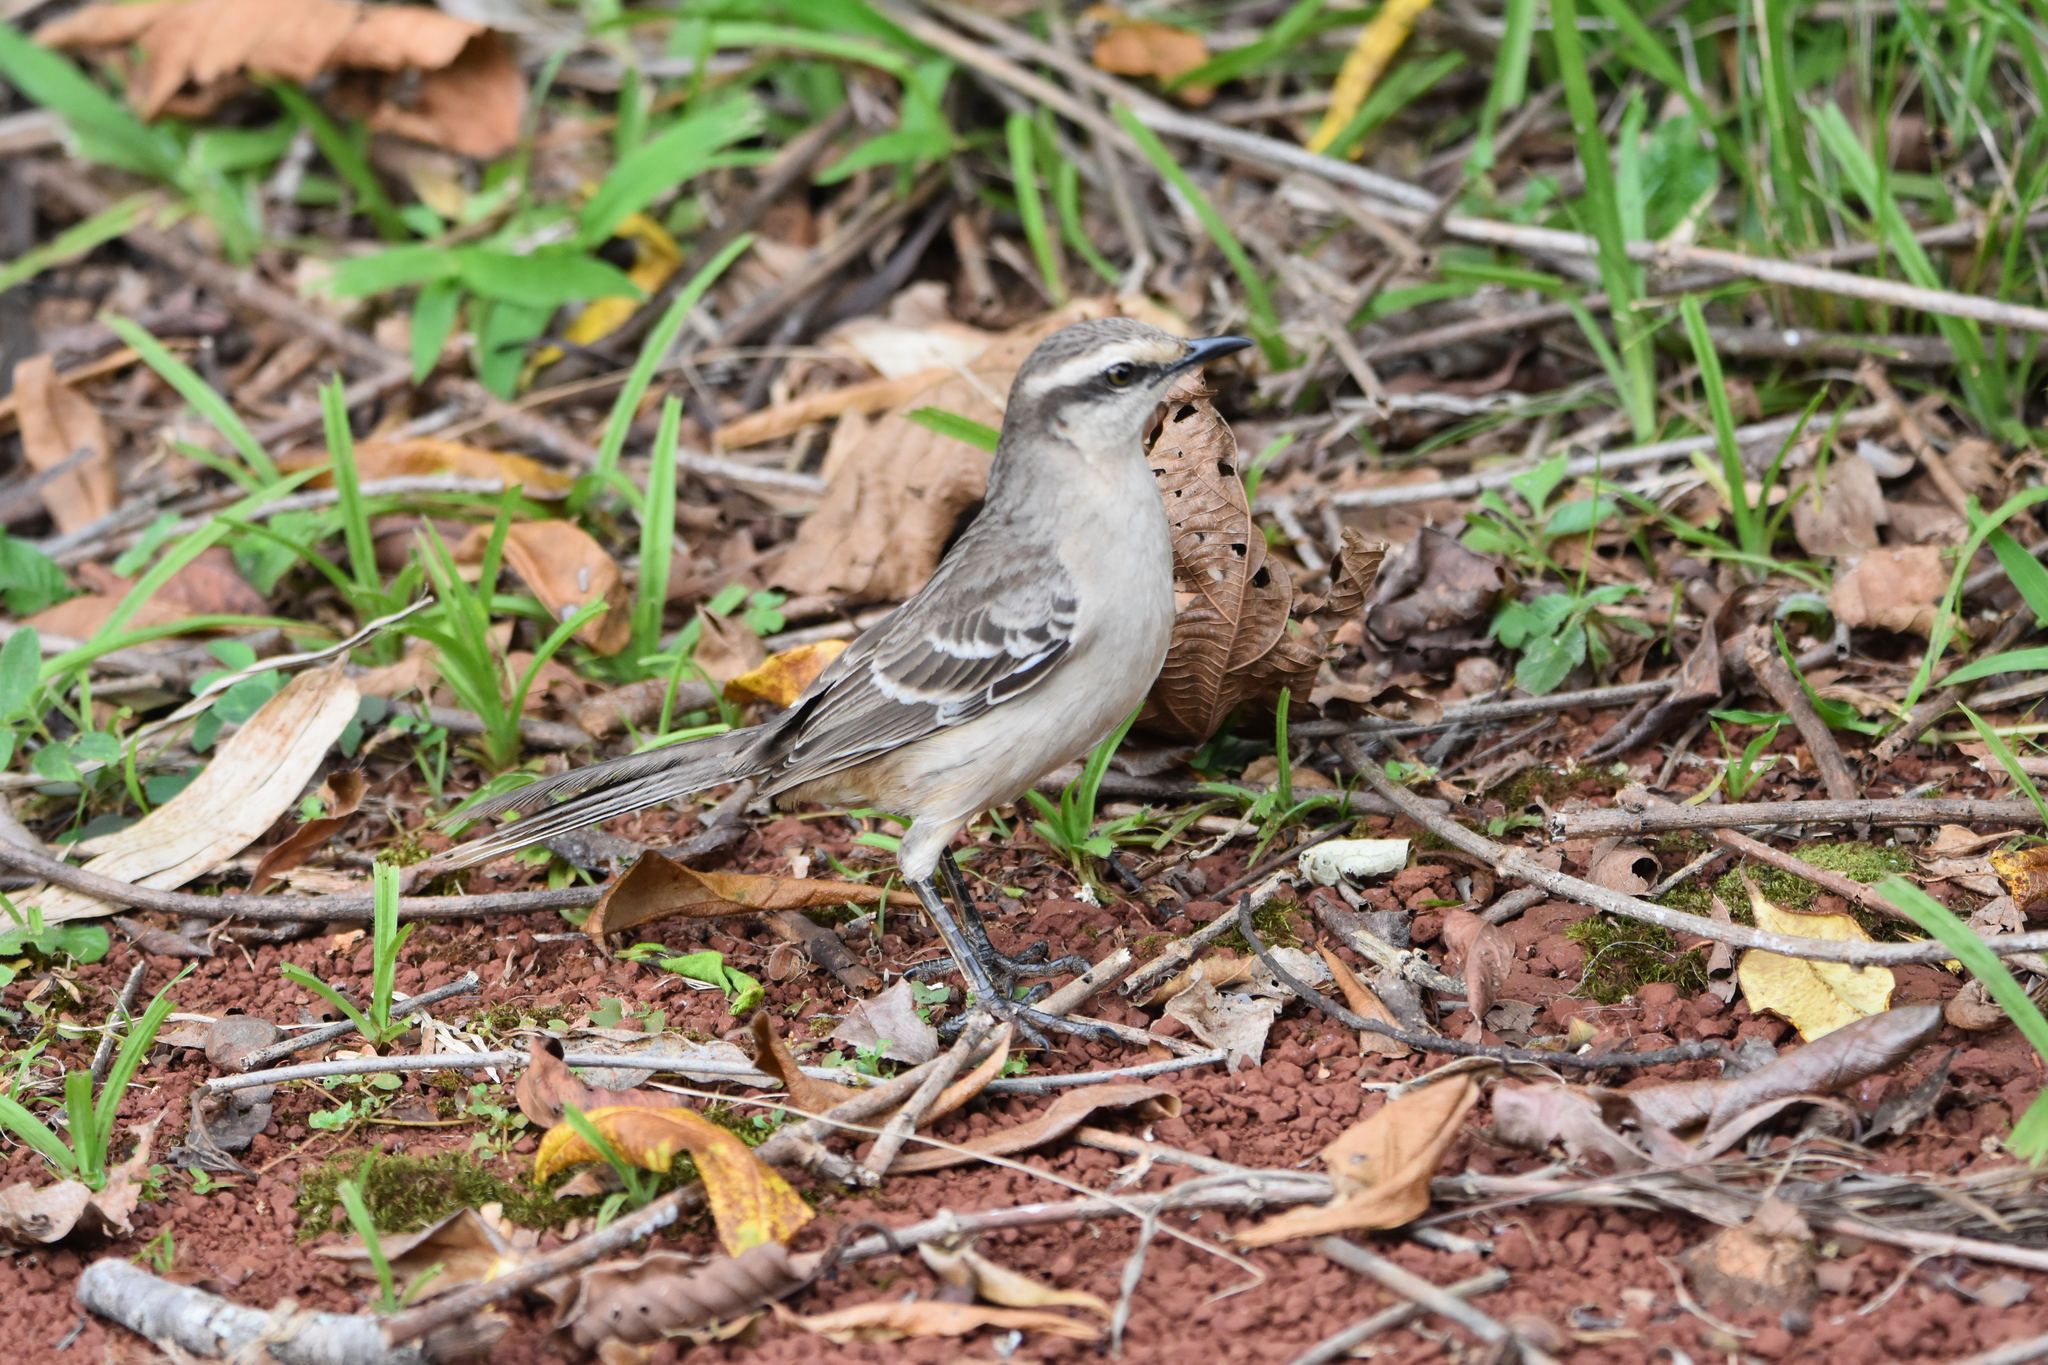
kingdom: Animalia
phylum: Chordata
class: Aves
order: Passeriformes
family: Mimidae
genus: Mimus
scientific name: Mimus saturninus
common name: Chalk-browed mockingbird
